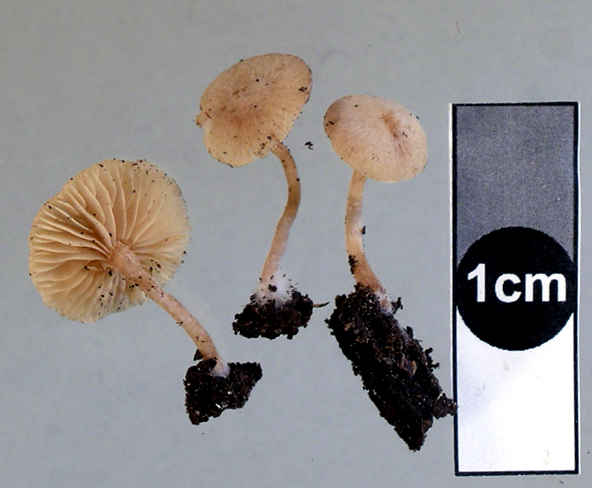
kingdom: Fungi
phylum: Basidiomycota
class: Agaricomycetes
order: Agaricales
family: Tubariaceae
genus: Tubaria
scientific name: Tubaria pallidissima
